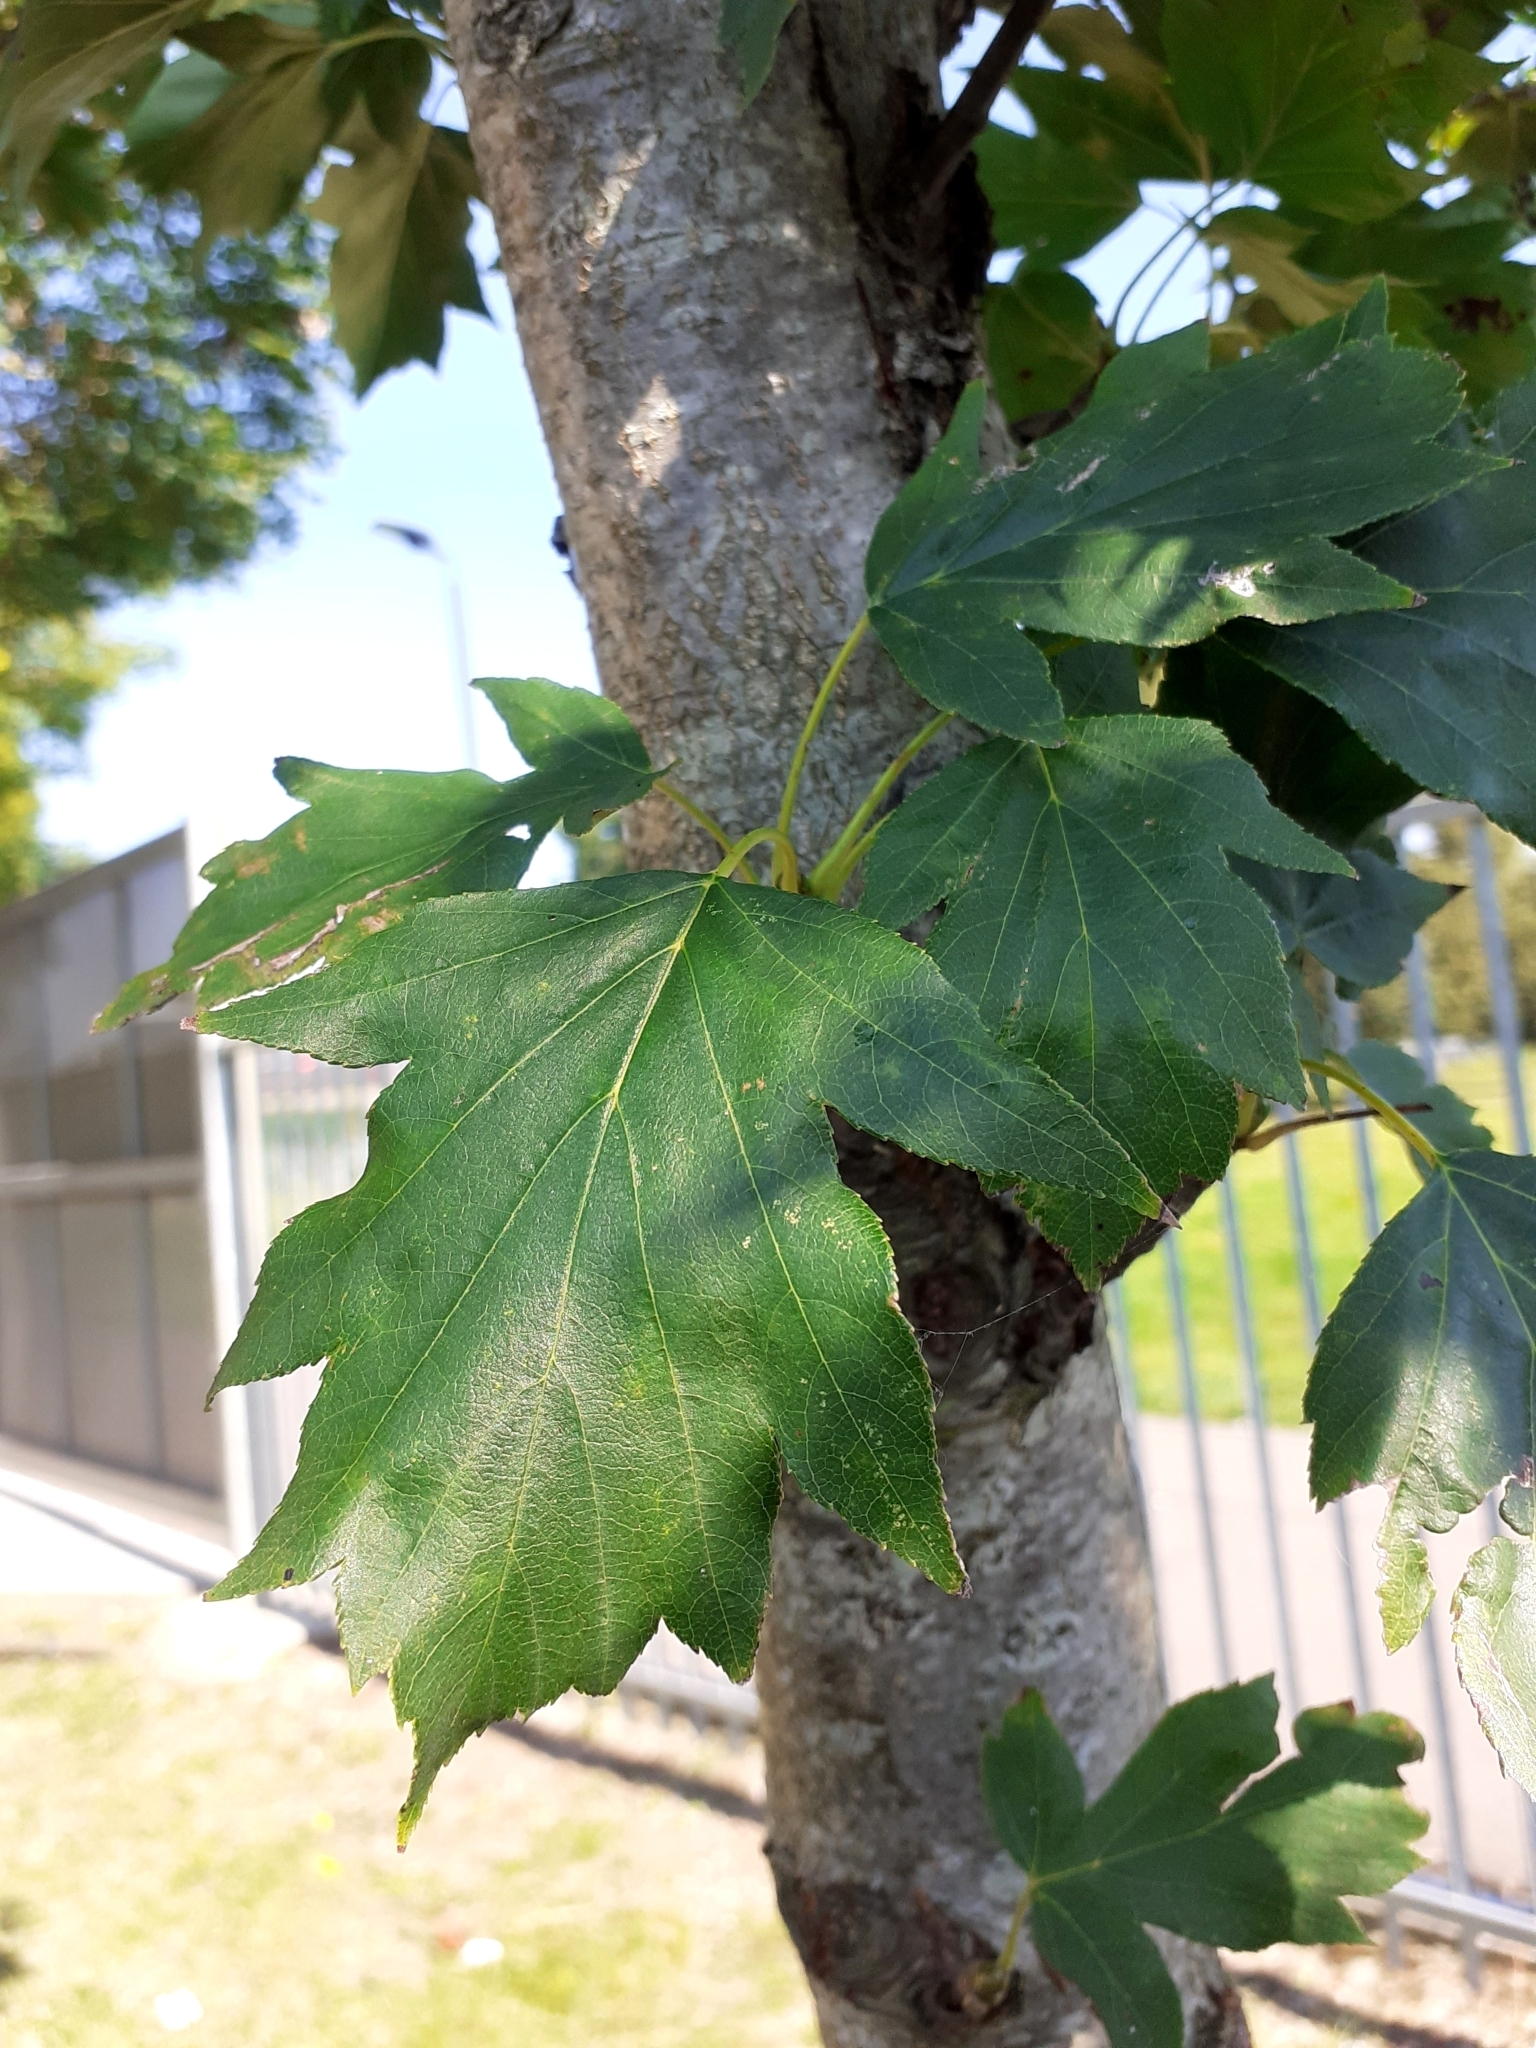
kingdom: Plantae
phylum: Tracheophyta
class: Magnoliopsida
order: Rosales
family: Rosaceae
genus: Torminalis
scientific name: Torminalis glaberrima
